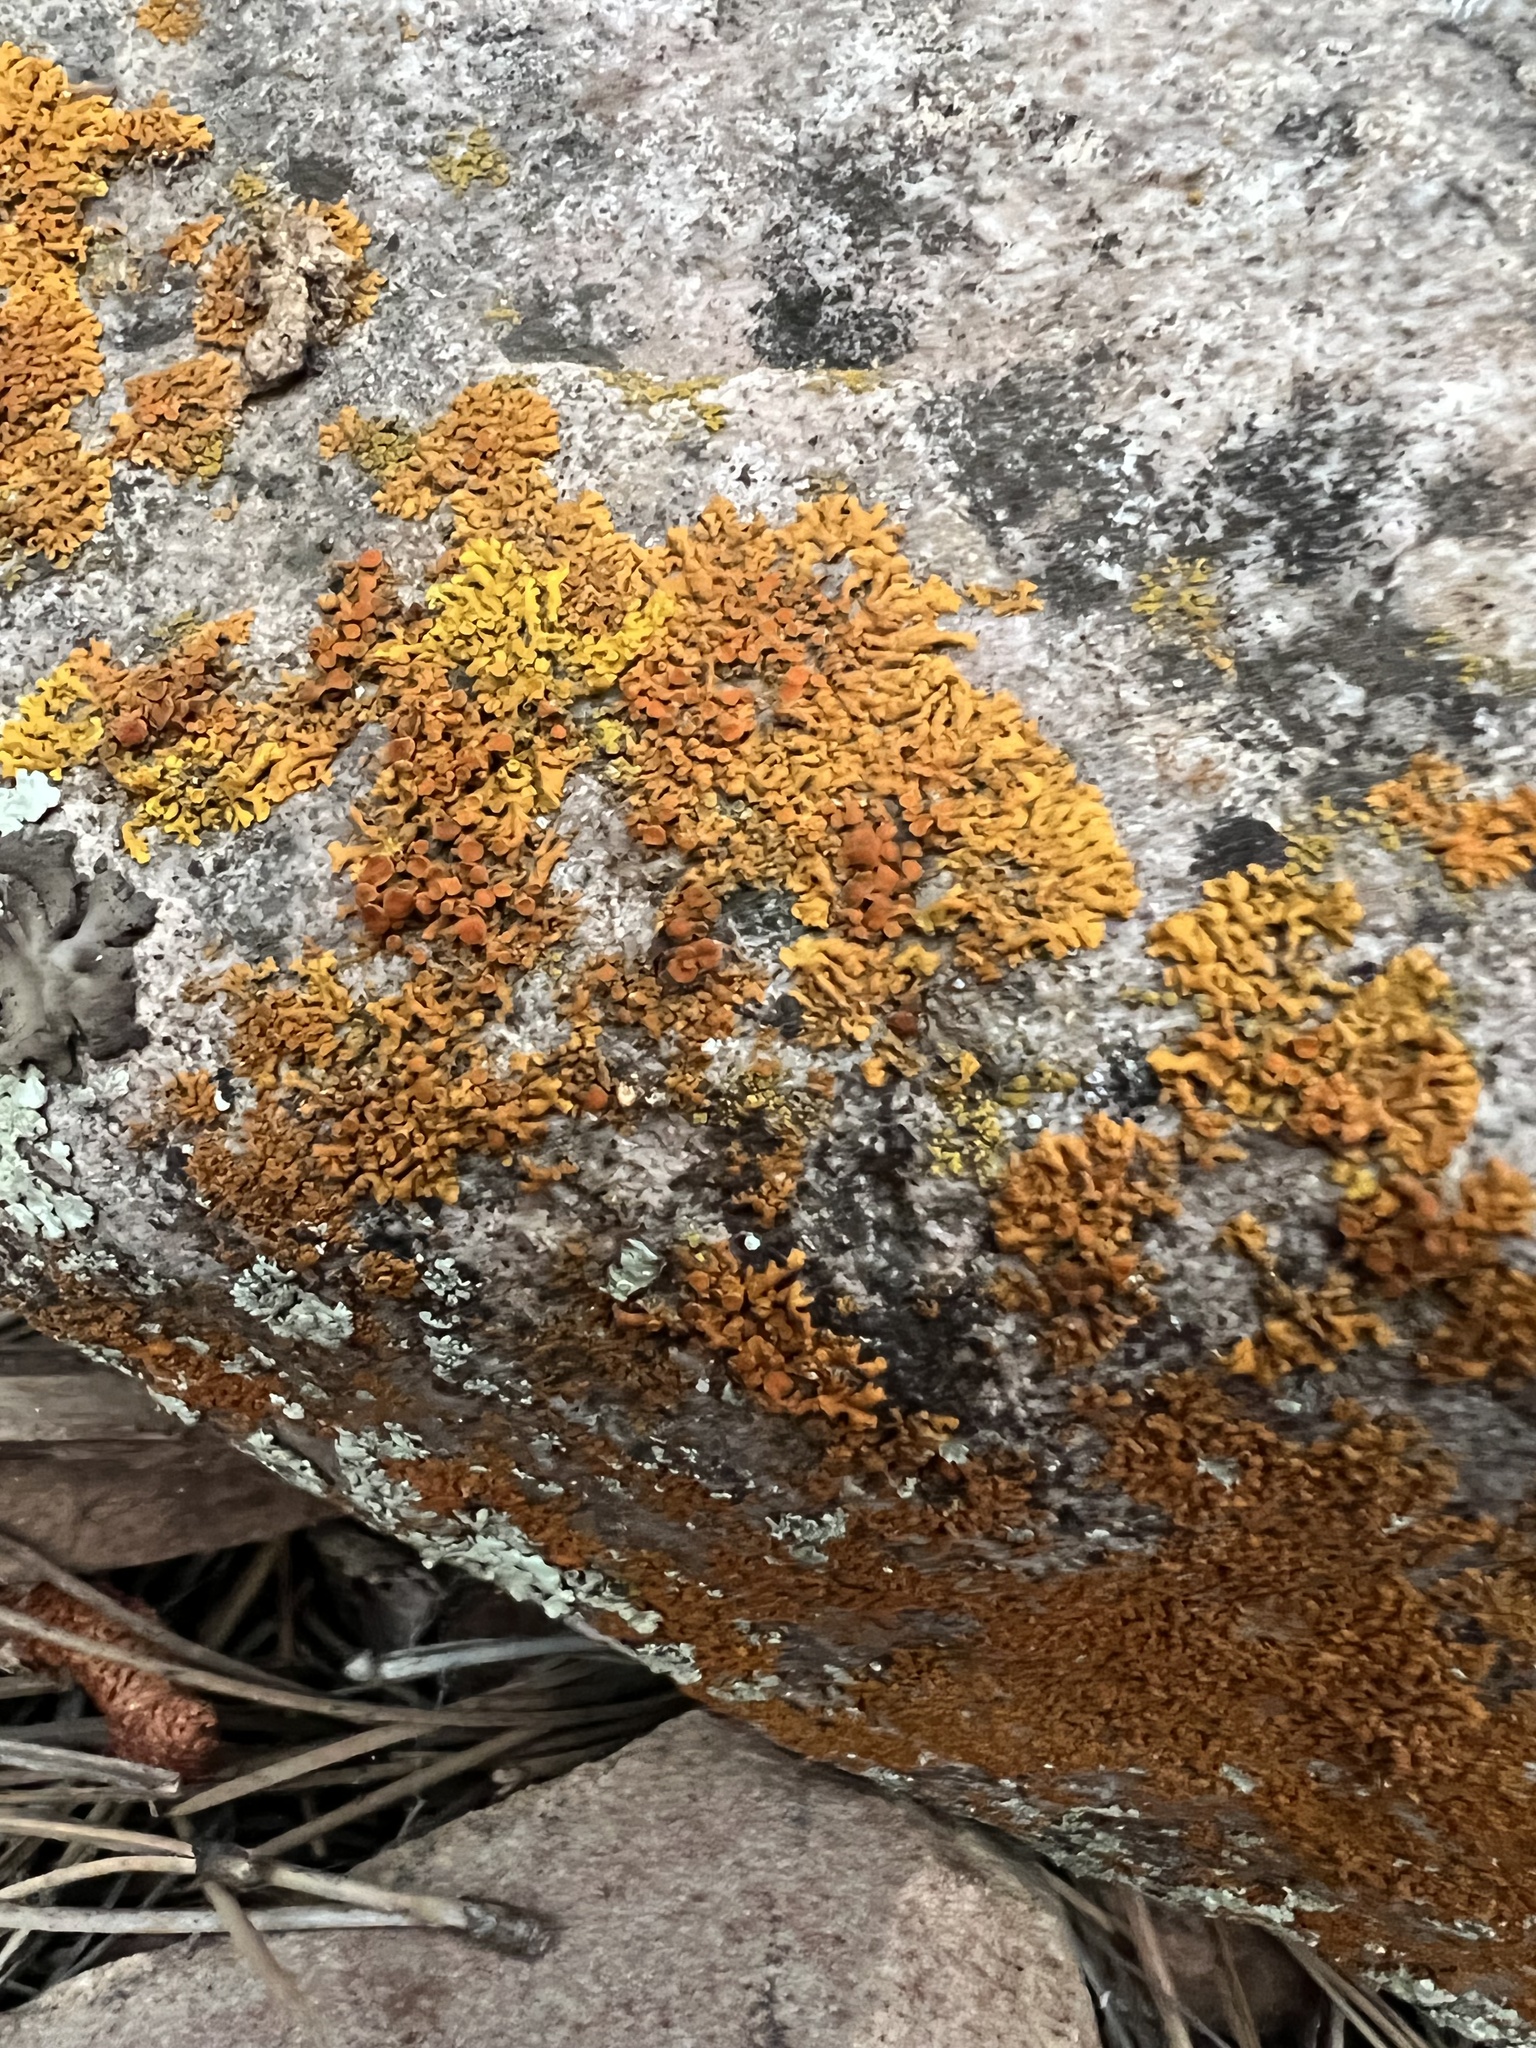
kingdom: Fungi
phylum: Ascomycota
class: Lecanoromycetes
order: Teloschistales
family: Teloschistaceae
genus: Xanthoria
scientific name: Xanthoria elegans
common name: Elegant sunburst lichen
